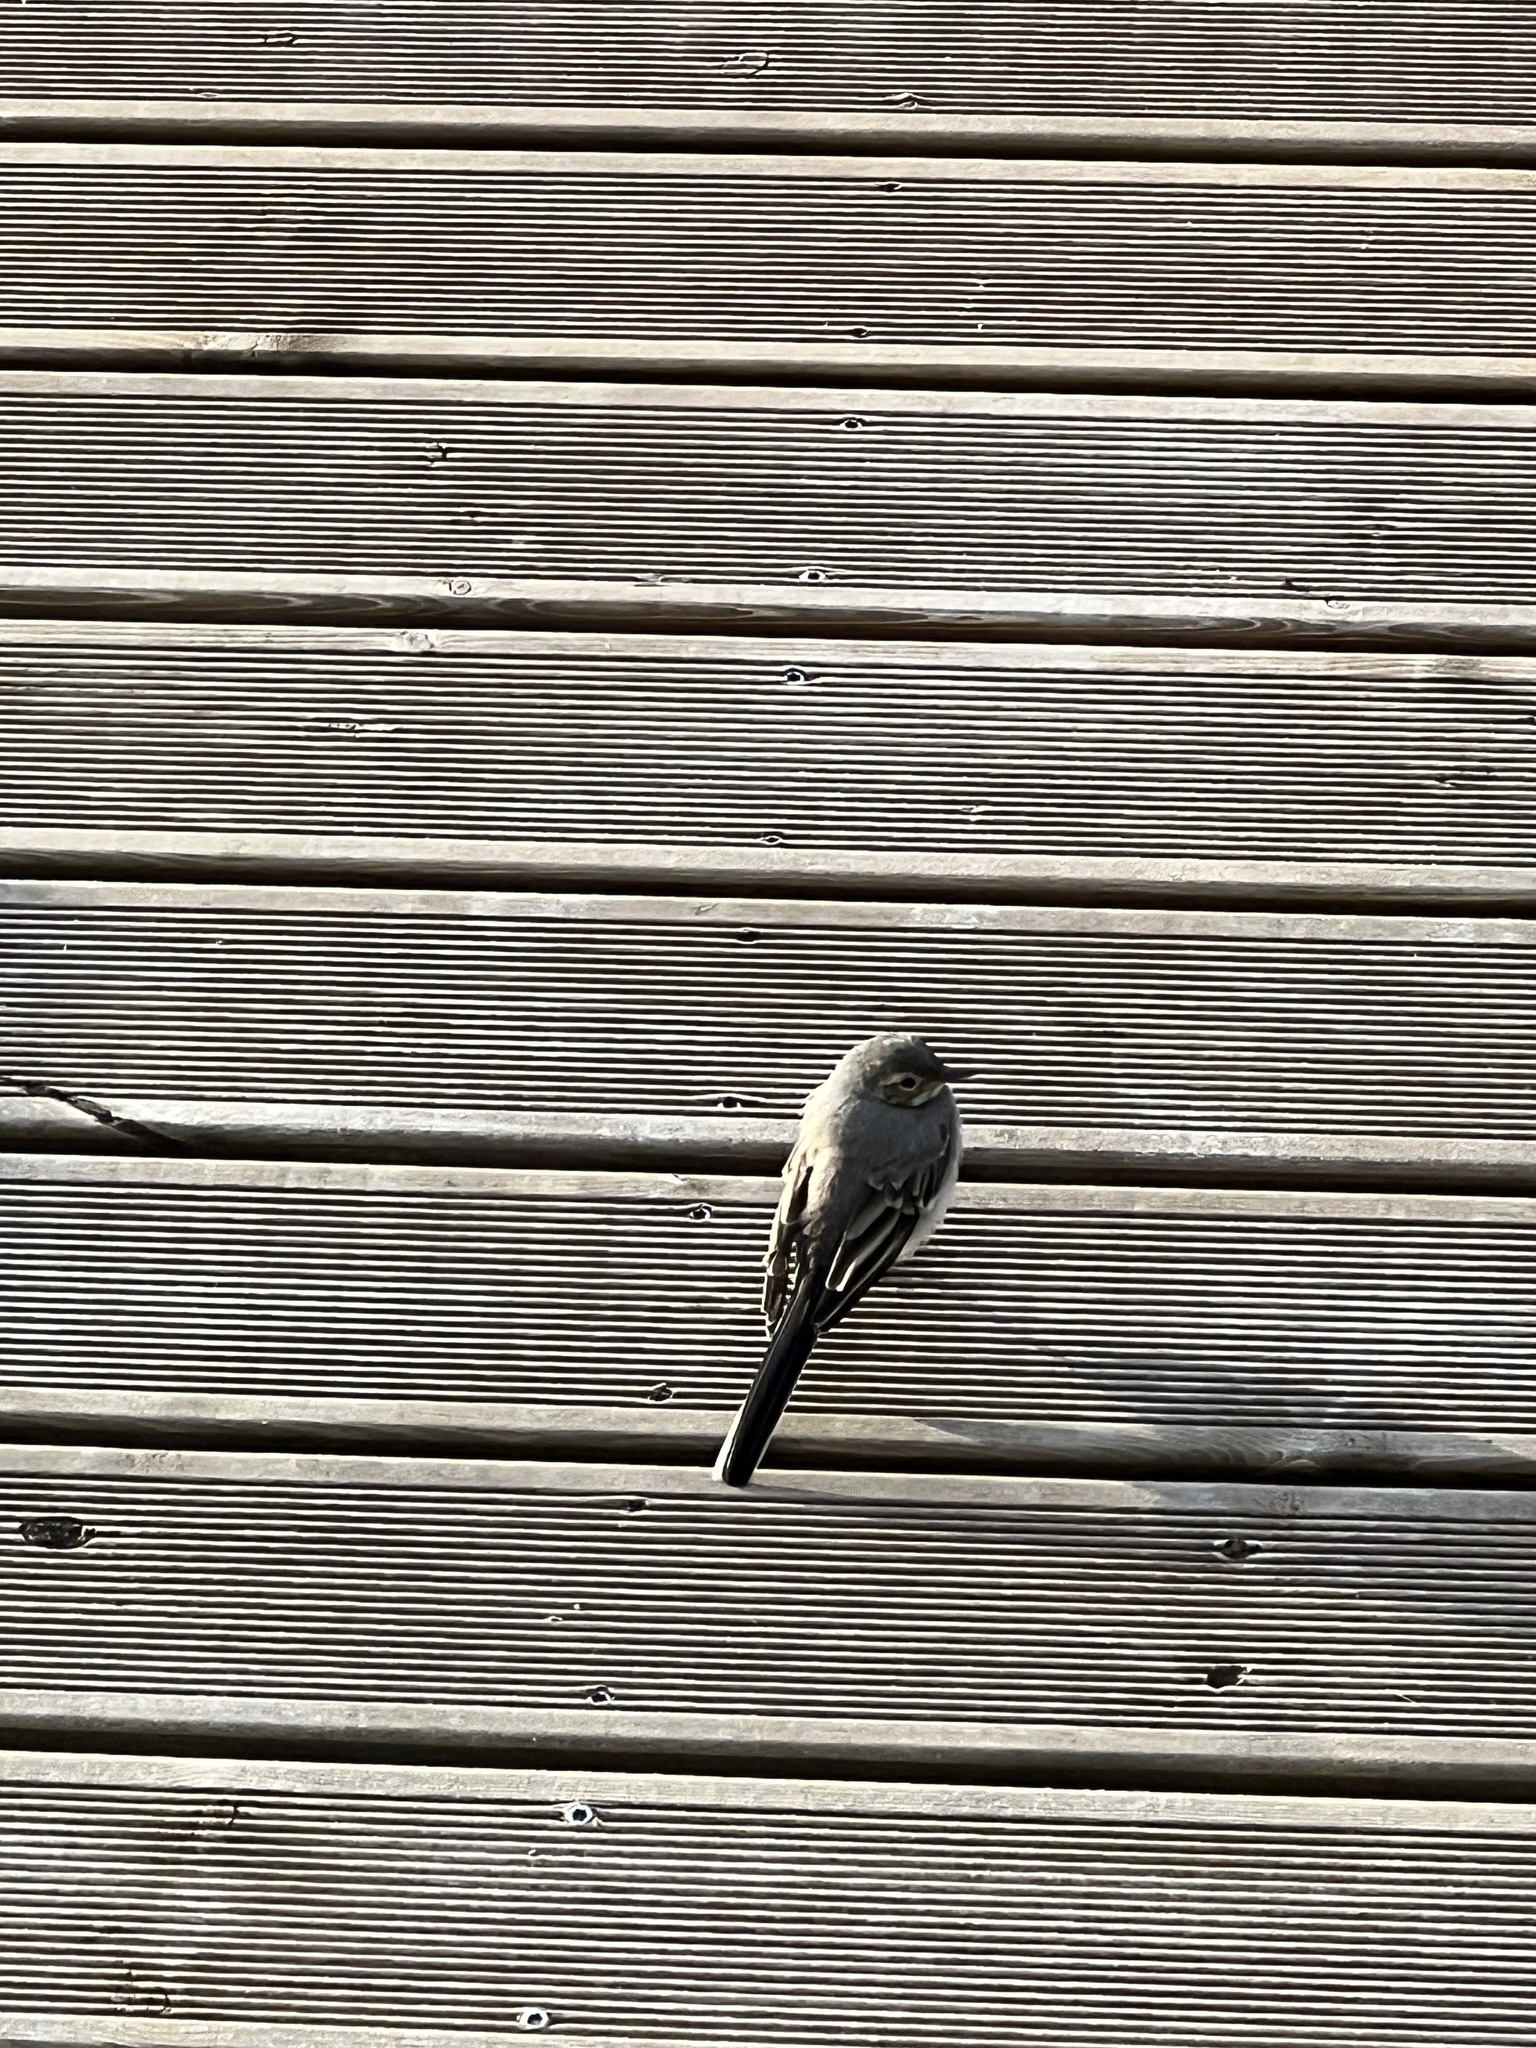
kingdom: Animalia
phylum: Chordata
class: Aves
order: Passeriformes
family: Motacillidae
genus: Motacilla
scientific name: Motacilla alba
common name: White wagtail
